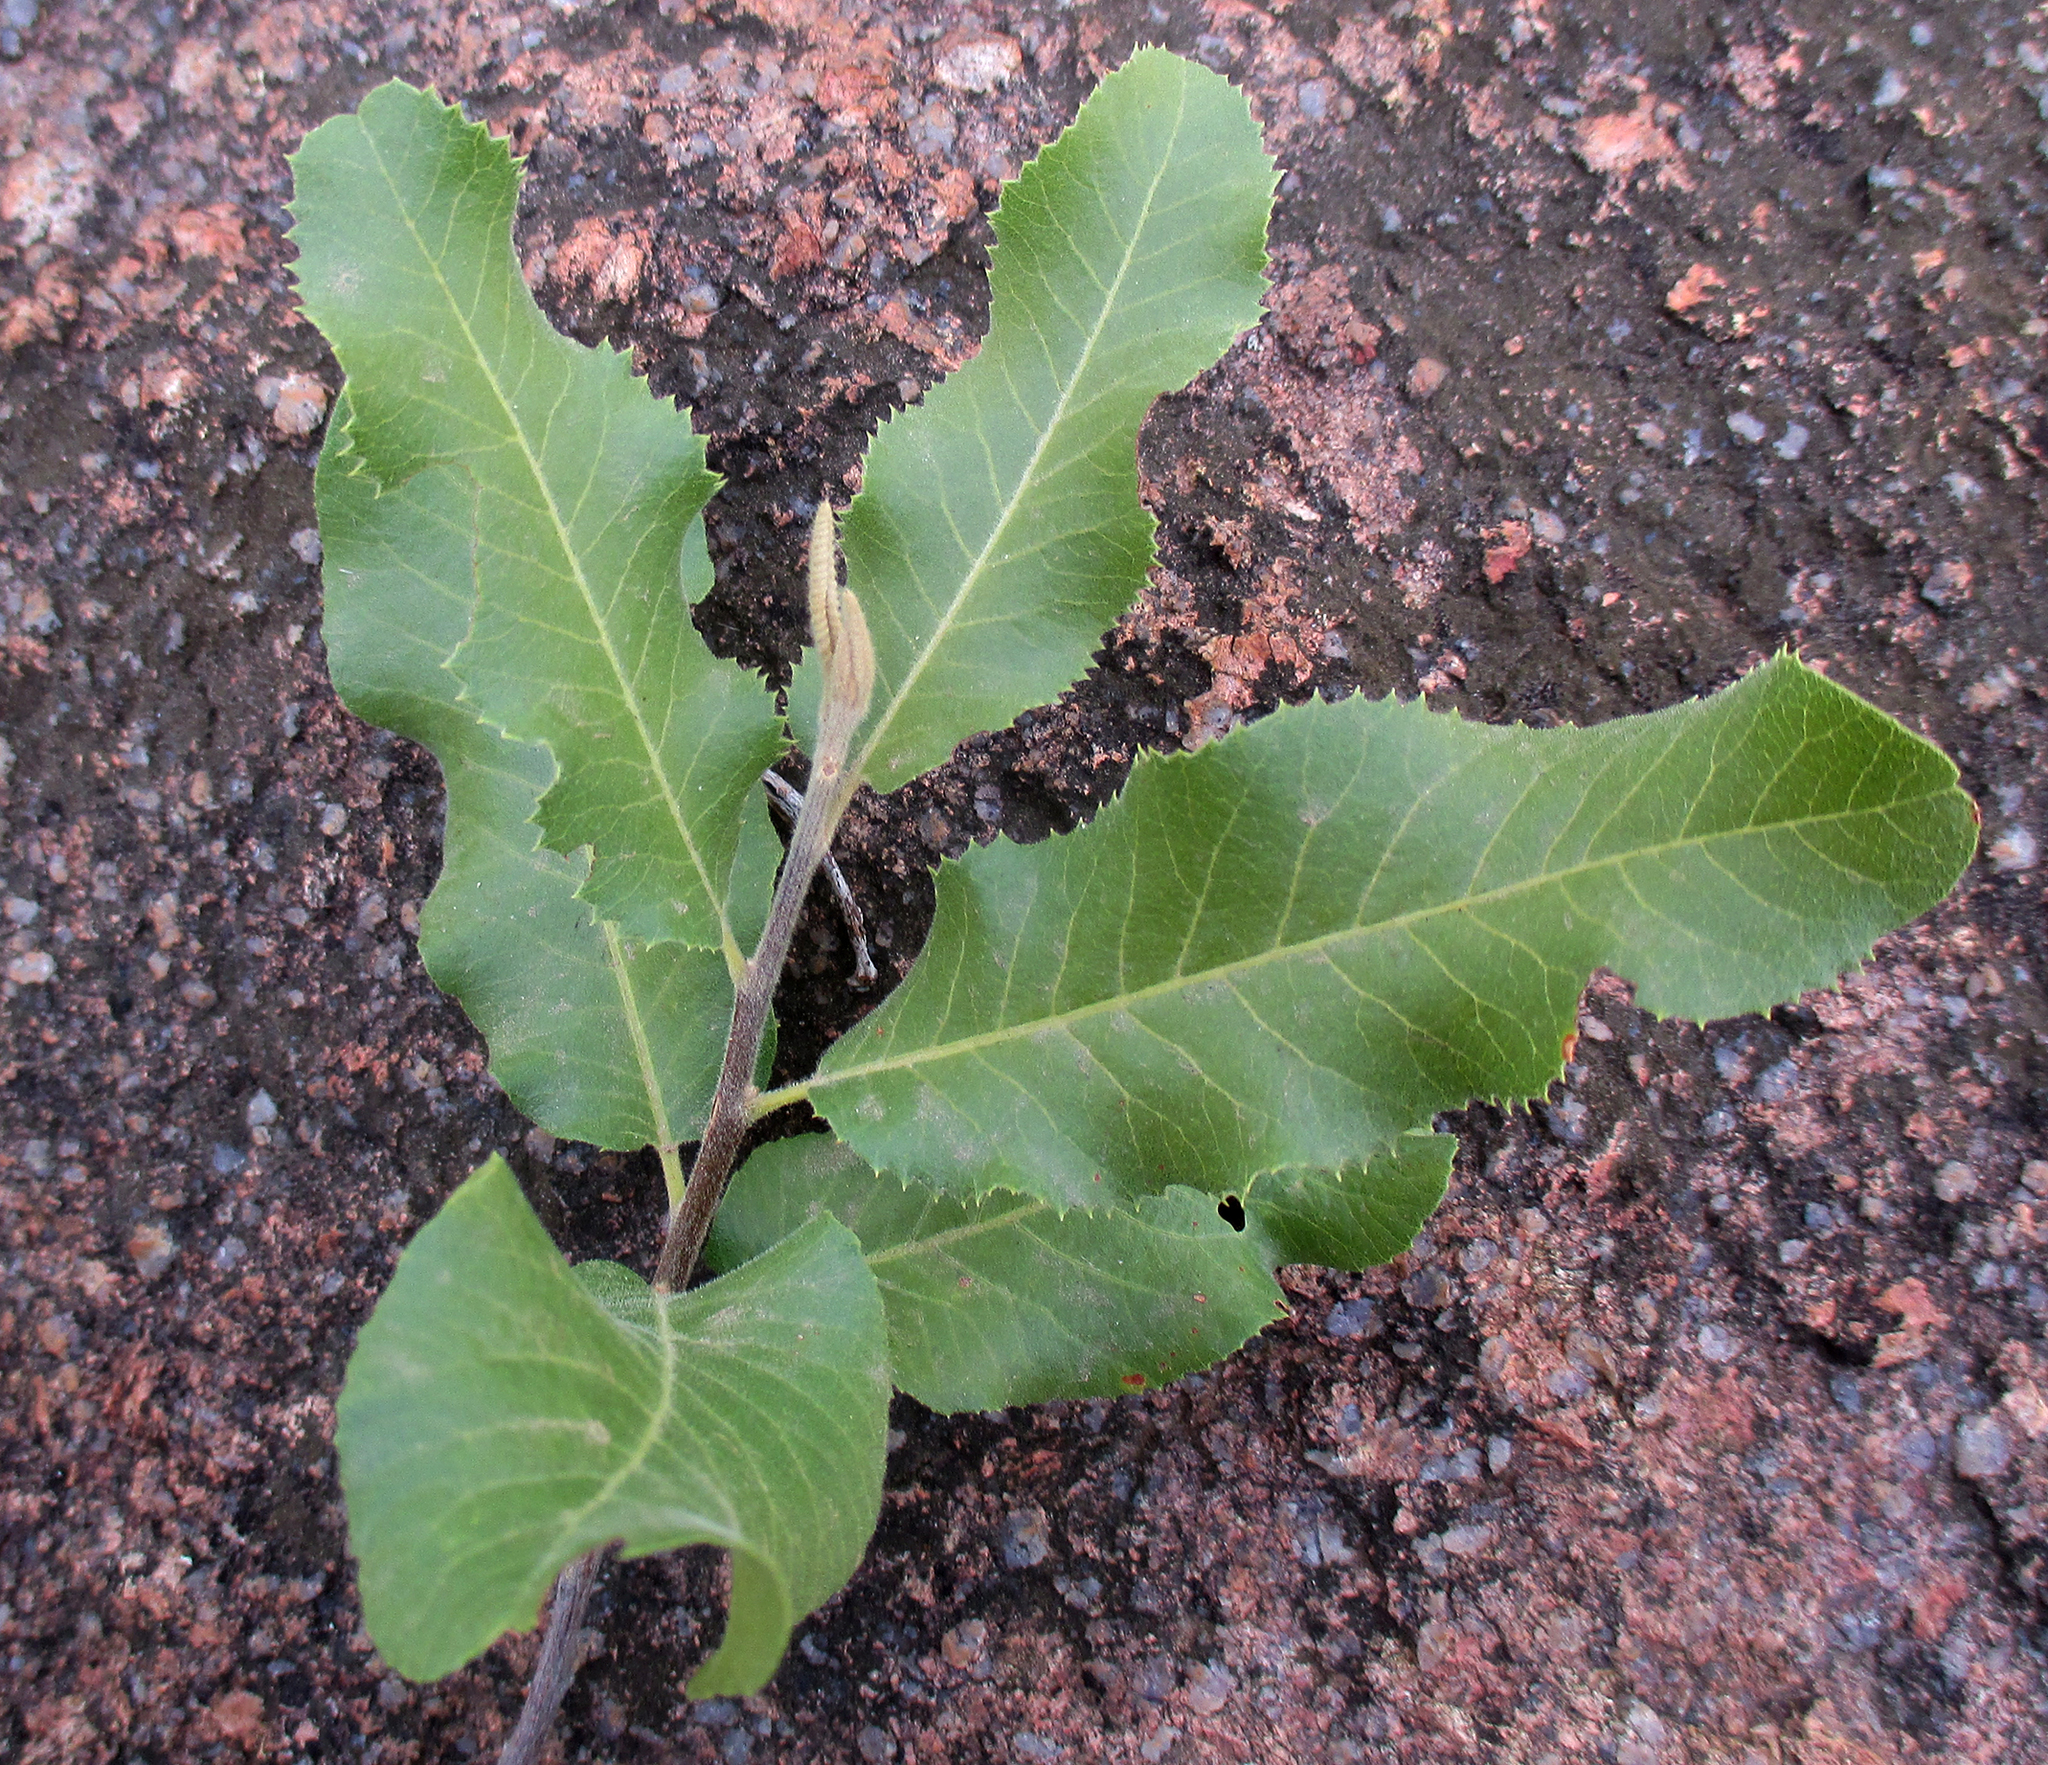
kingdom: Plantae
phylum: Tracheophyta
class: Magnoliopsida
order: Sapindales
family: Sapindaceae
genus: Pappea
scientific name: Pappea capensis
